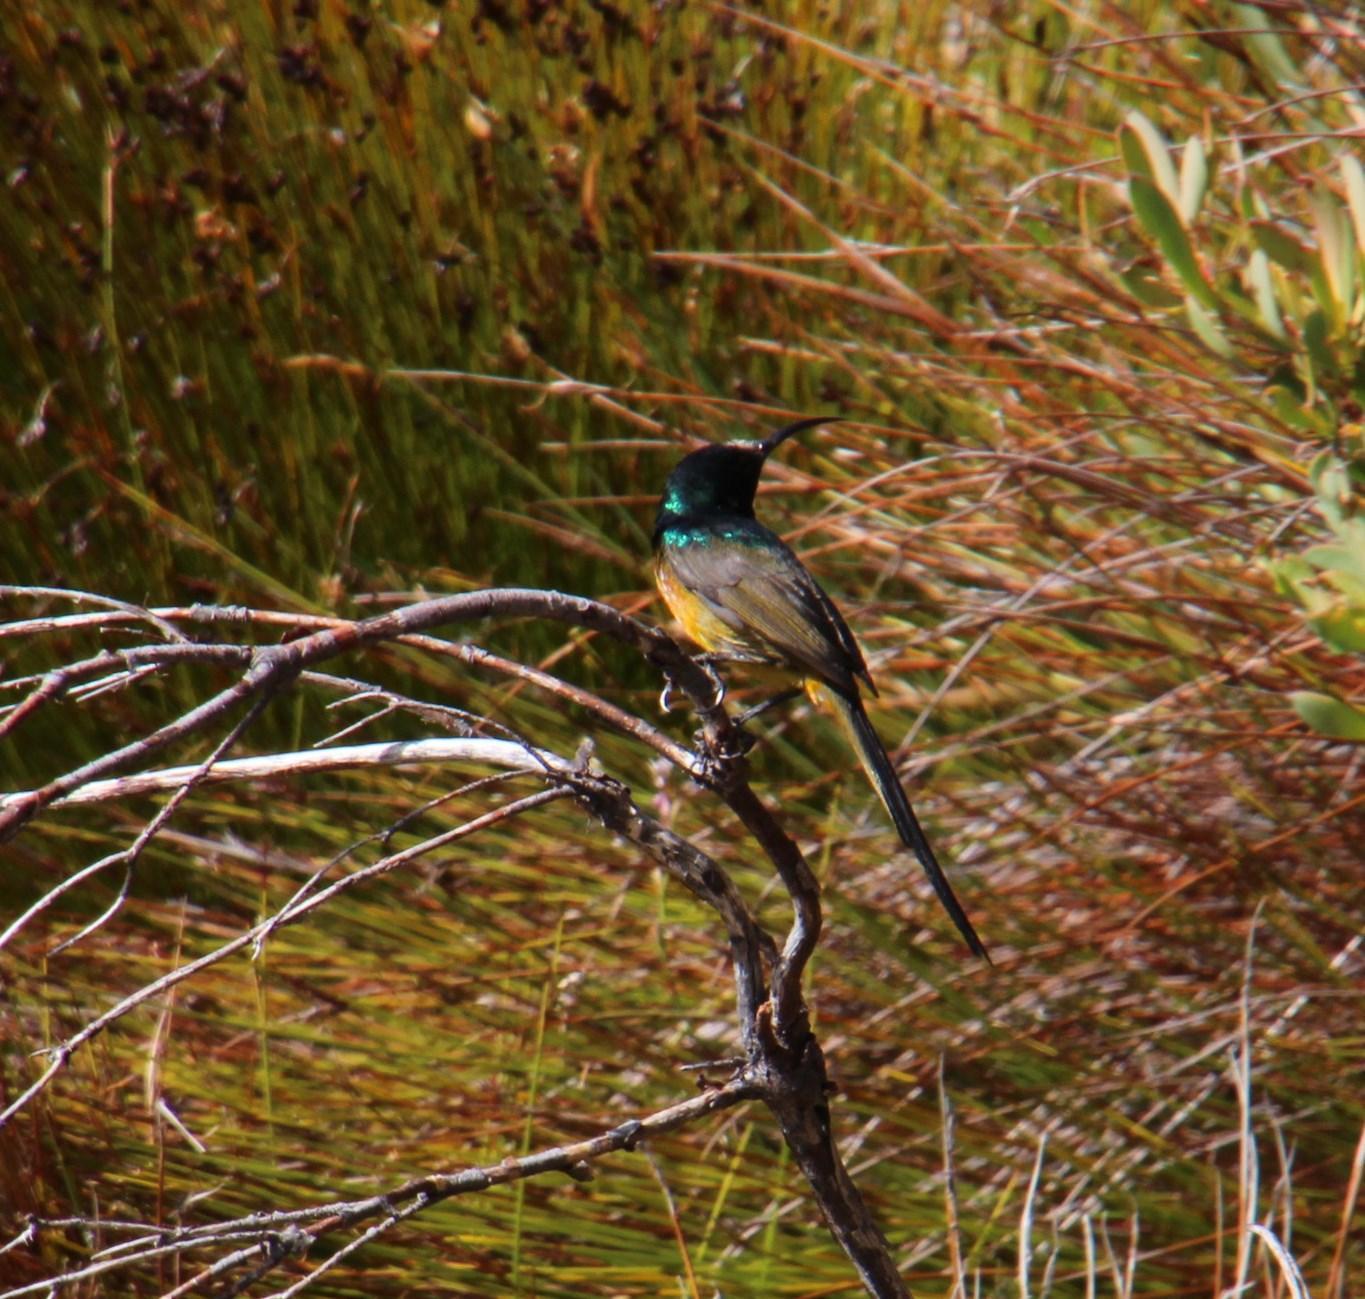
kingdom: Animalia
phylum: Chordata
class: Aves
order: Passeriformes
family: Nectariniidae
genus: Anthobaphes
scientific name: Anthobaphes violacea
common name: Orange-breasted sunbird
